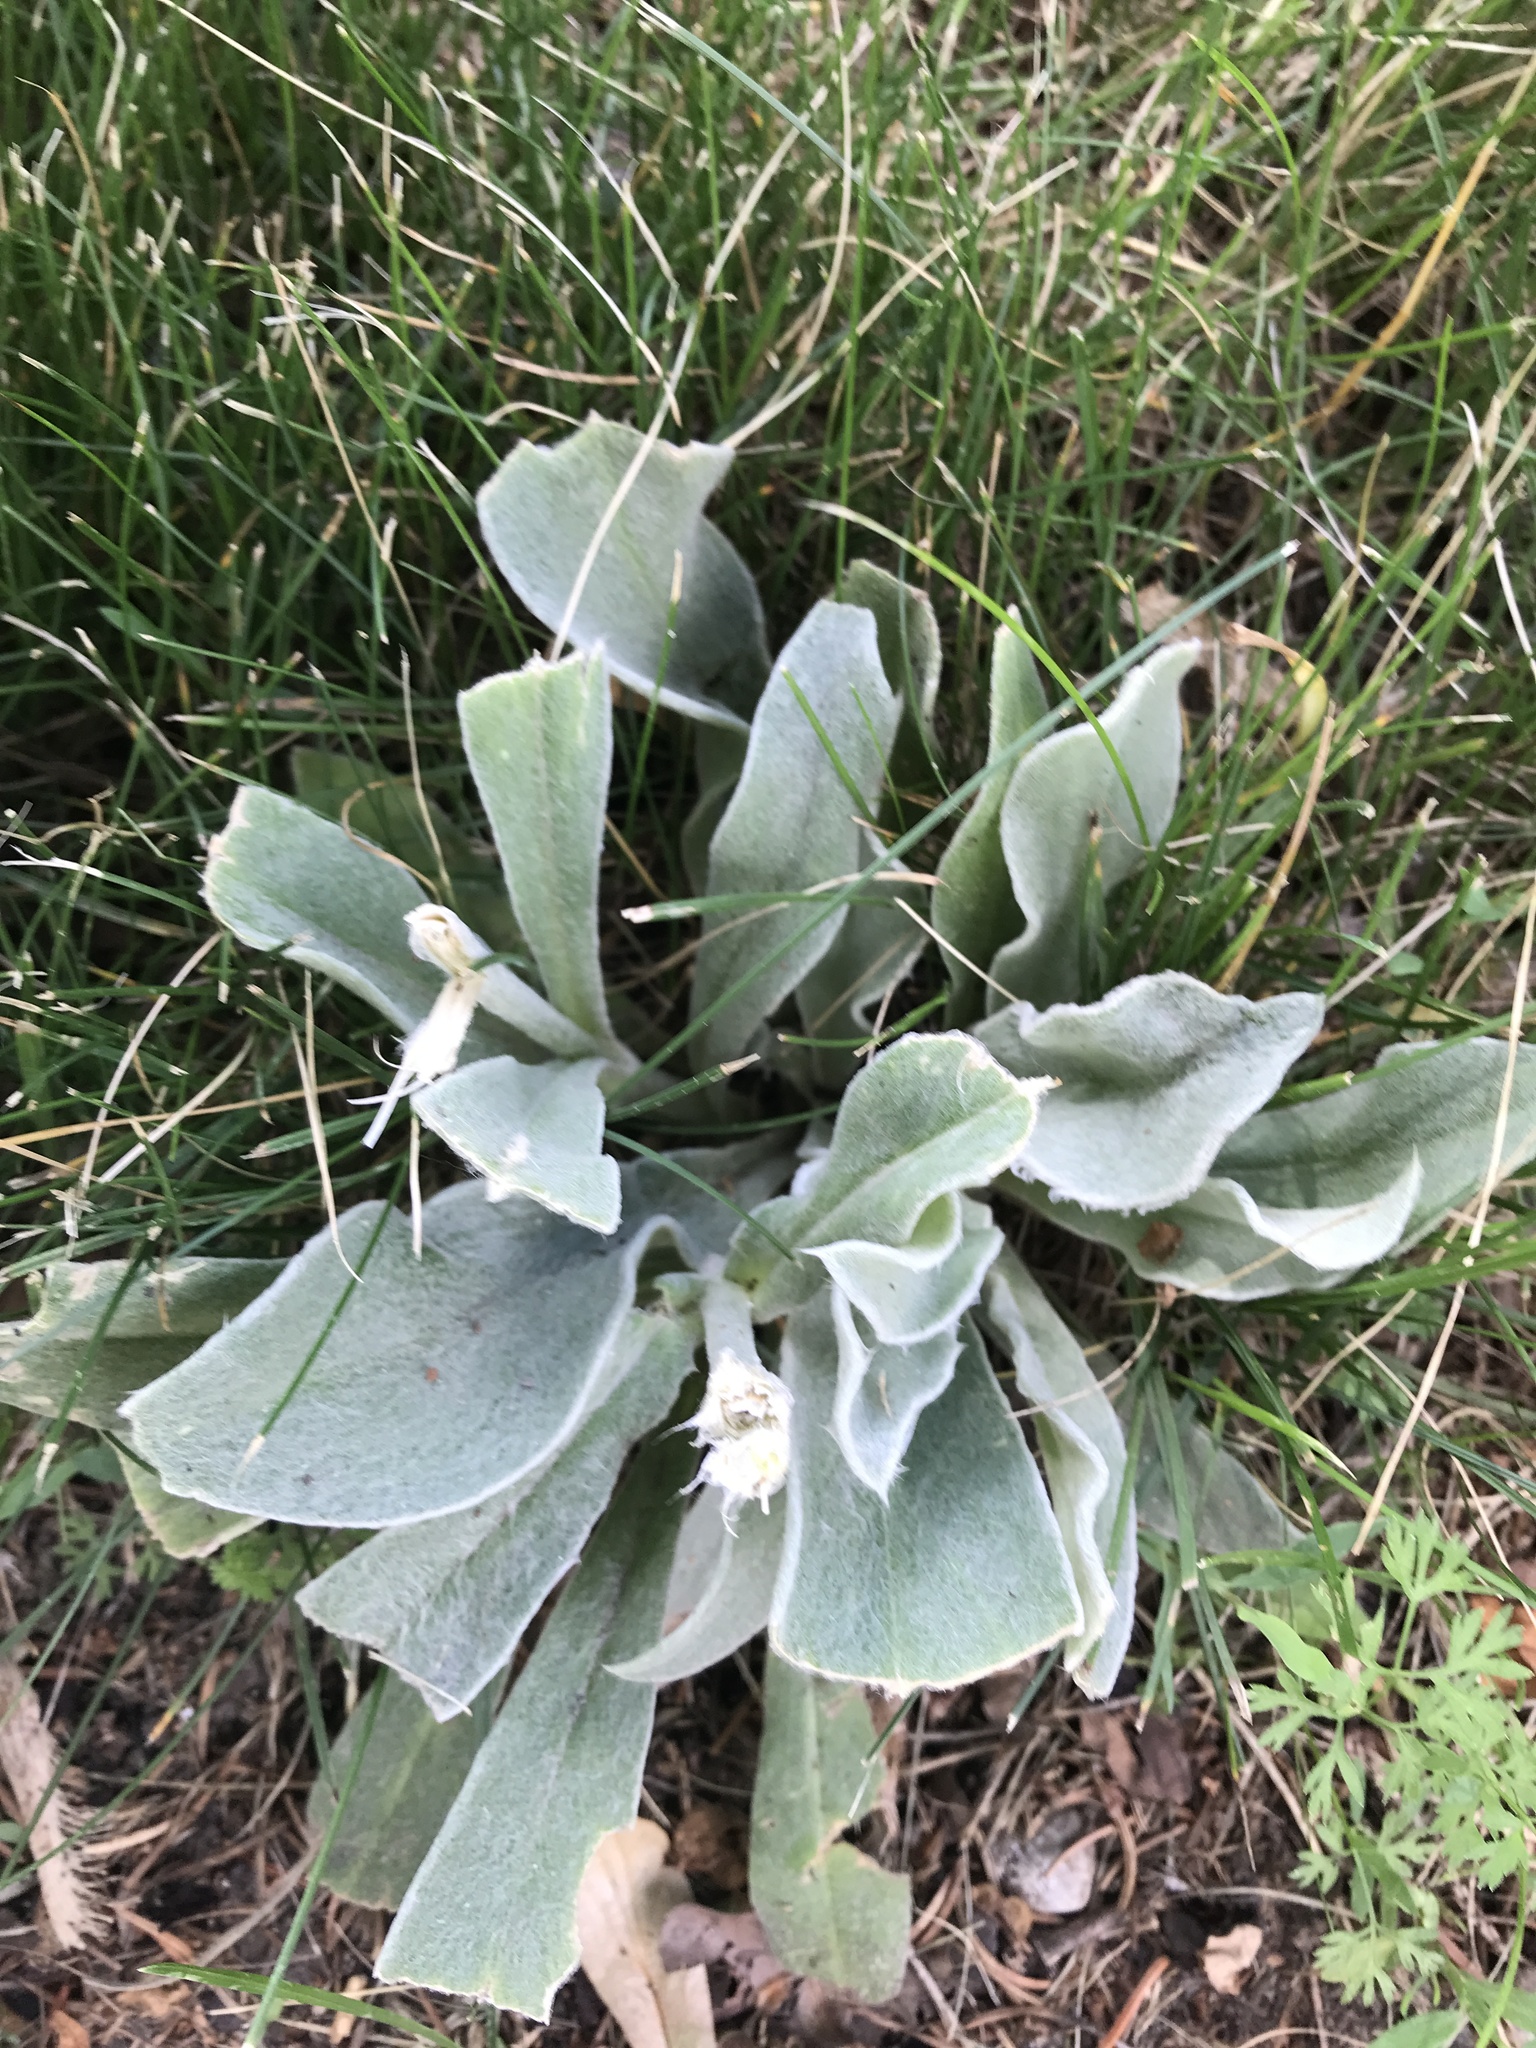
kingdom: Plantae
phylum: Tracheophyta
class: Magnoliopsida
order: Caryophyllales
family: Caryophyllaceae
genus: Silene
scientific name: Silene coronaria
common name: Rose campion
